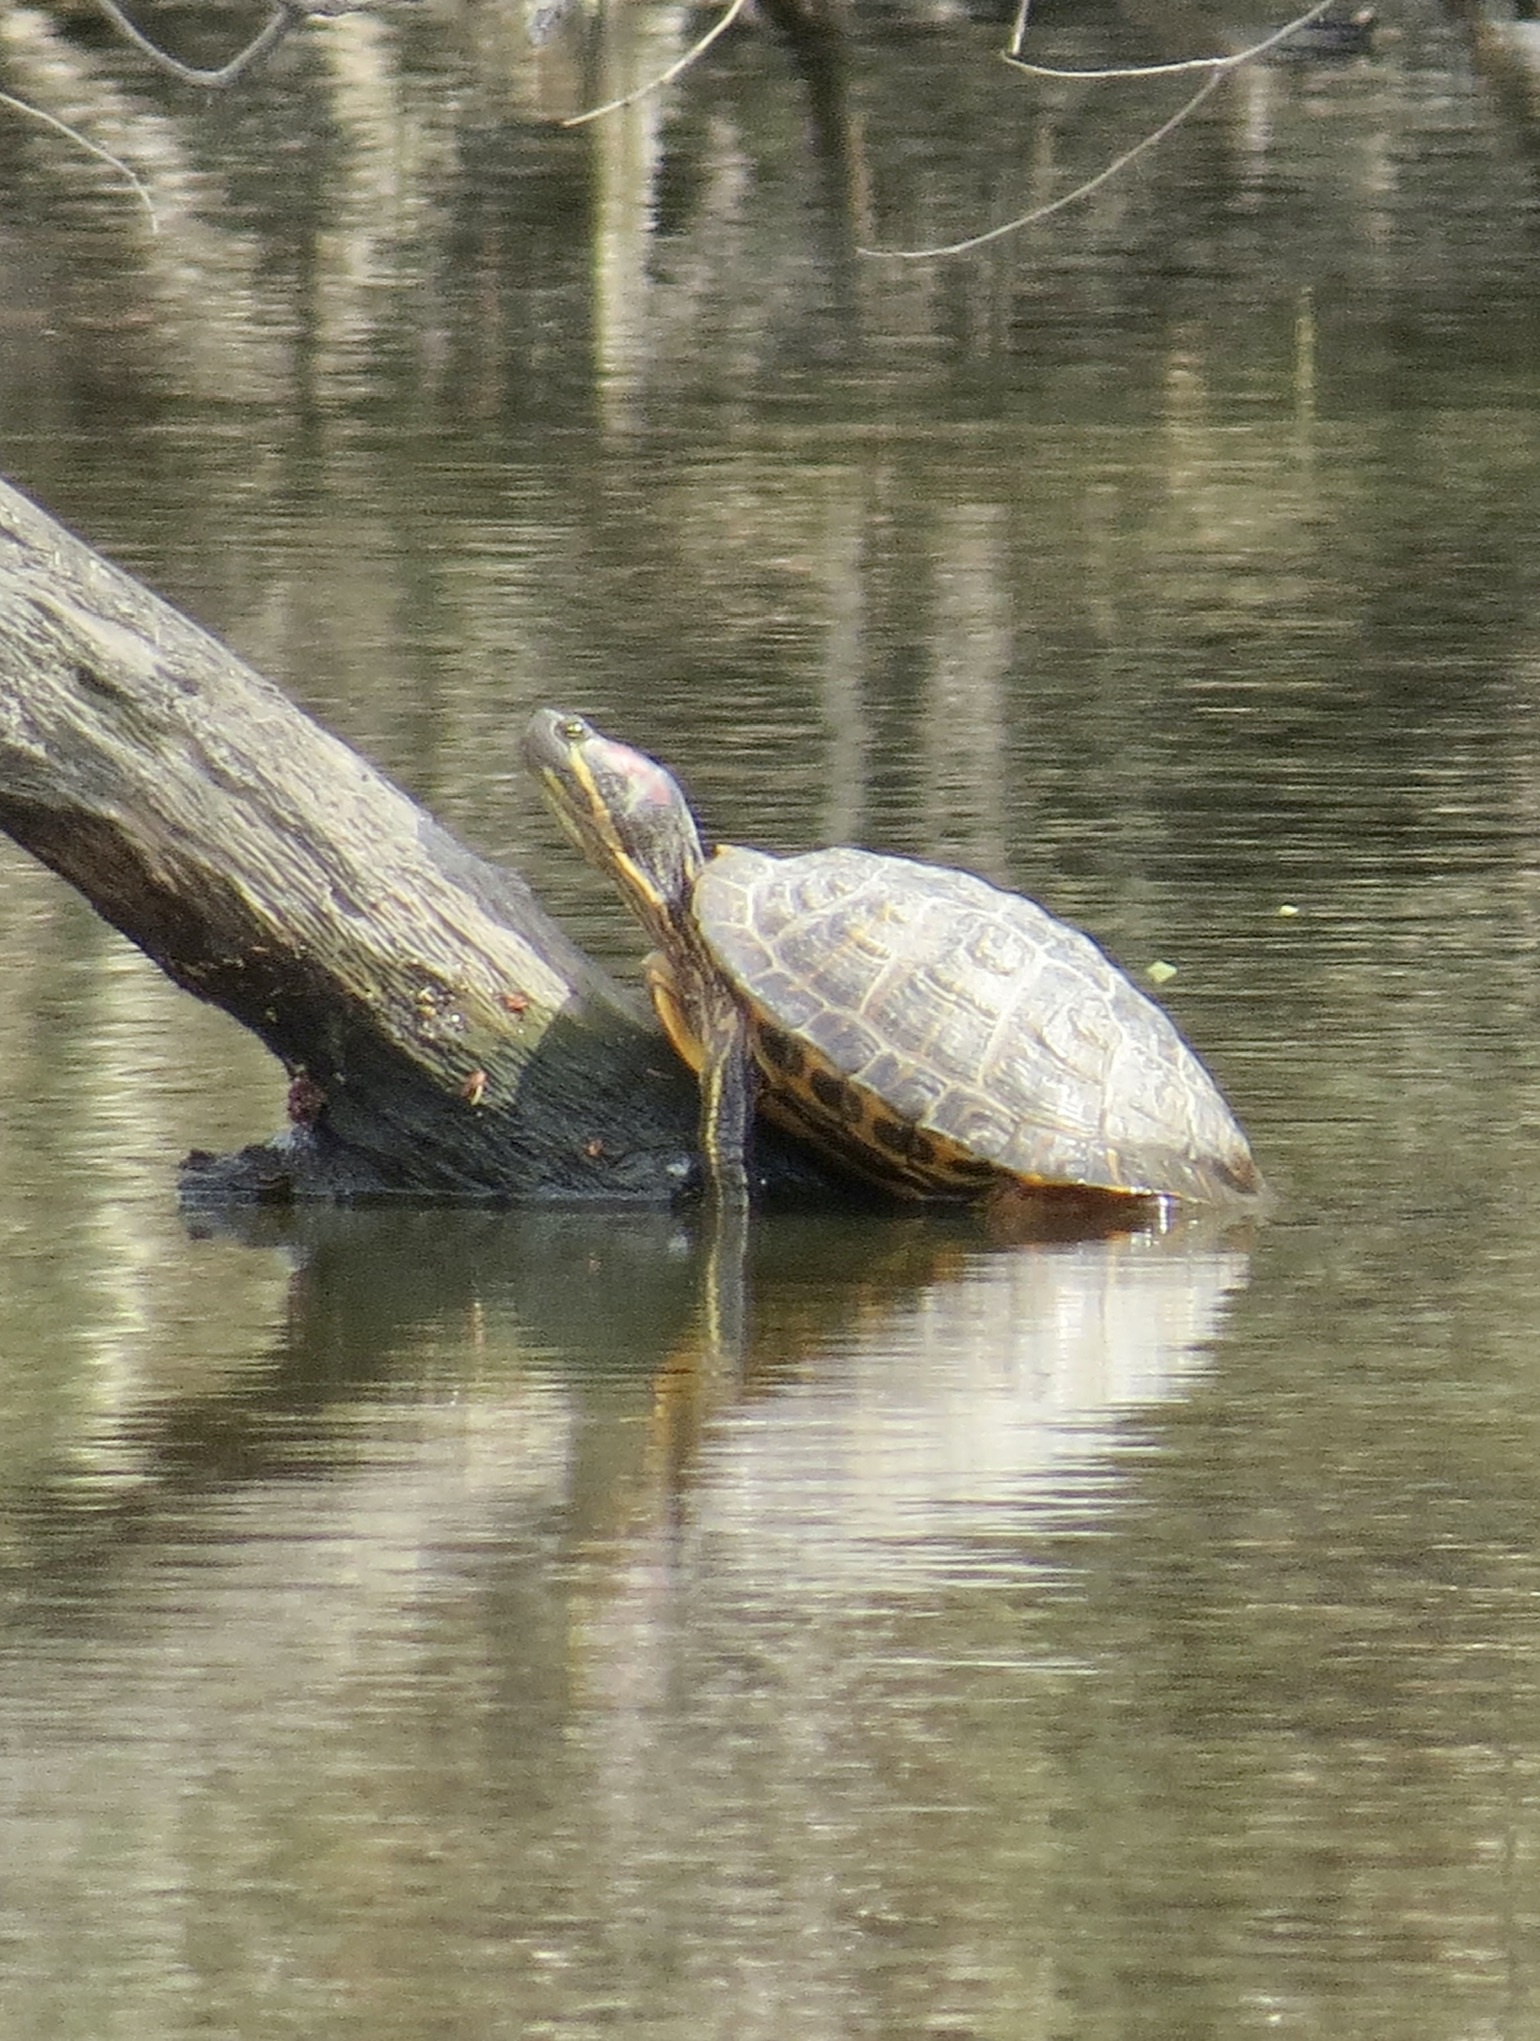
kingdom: Animalia
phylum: Chordata
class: Testudines
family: Emydidae
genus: Trachemys
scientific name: Trachemys scripta
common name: Slider
